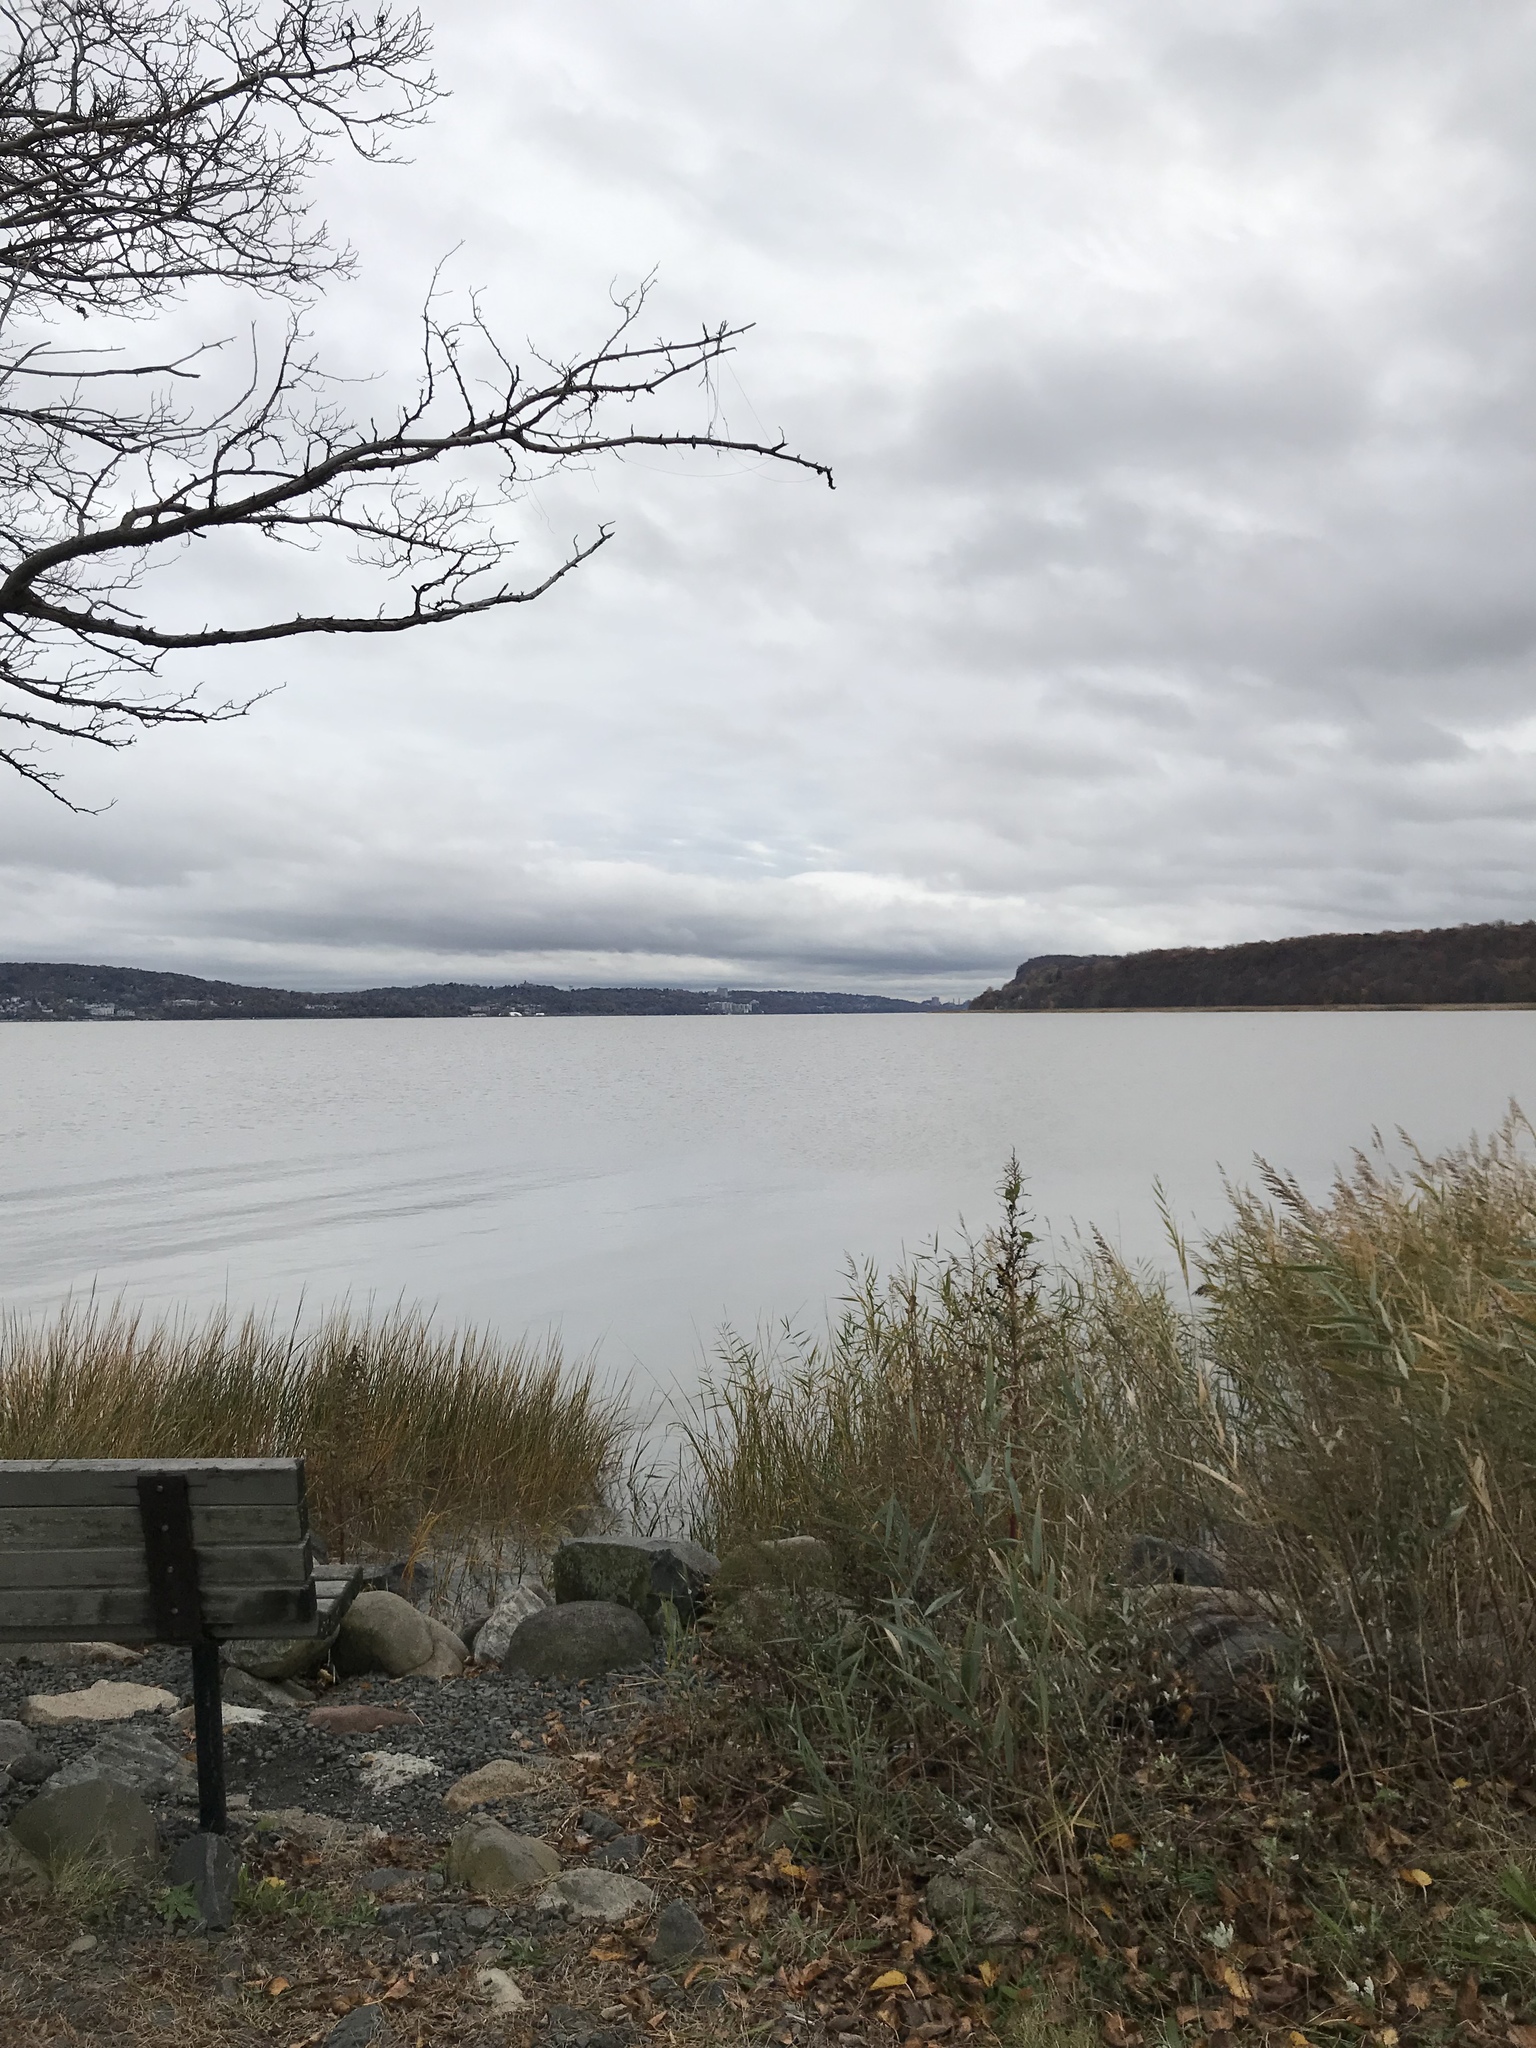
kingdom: Animalia
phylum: Chordata
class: Aves
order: Suliformes
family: Phalacrocoracidae
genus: Phalacrocorax
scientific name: Phalacrocorax auritus
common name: Double-crested cormorant
